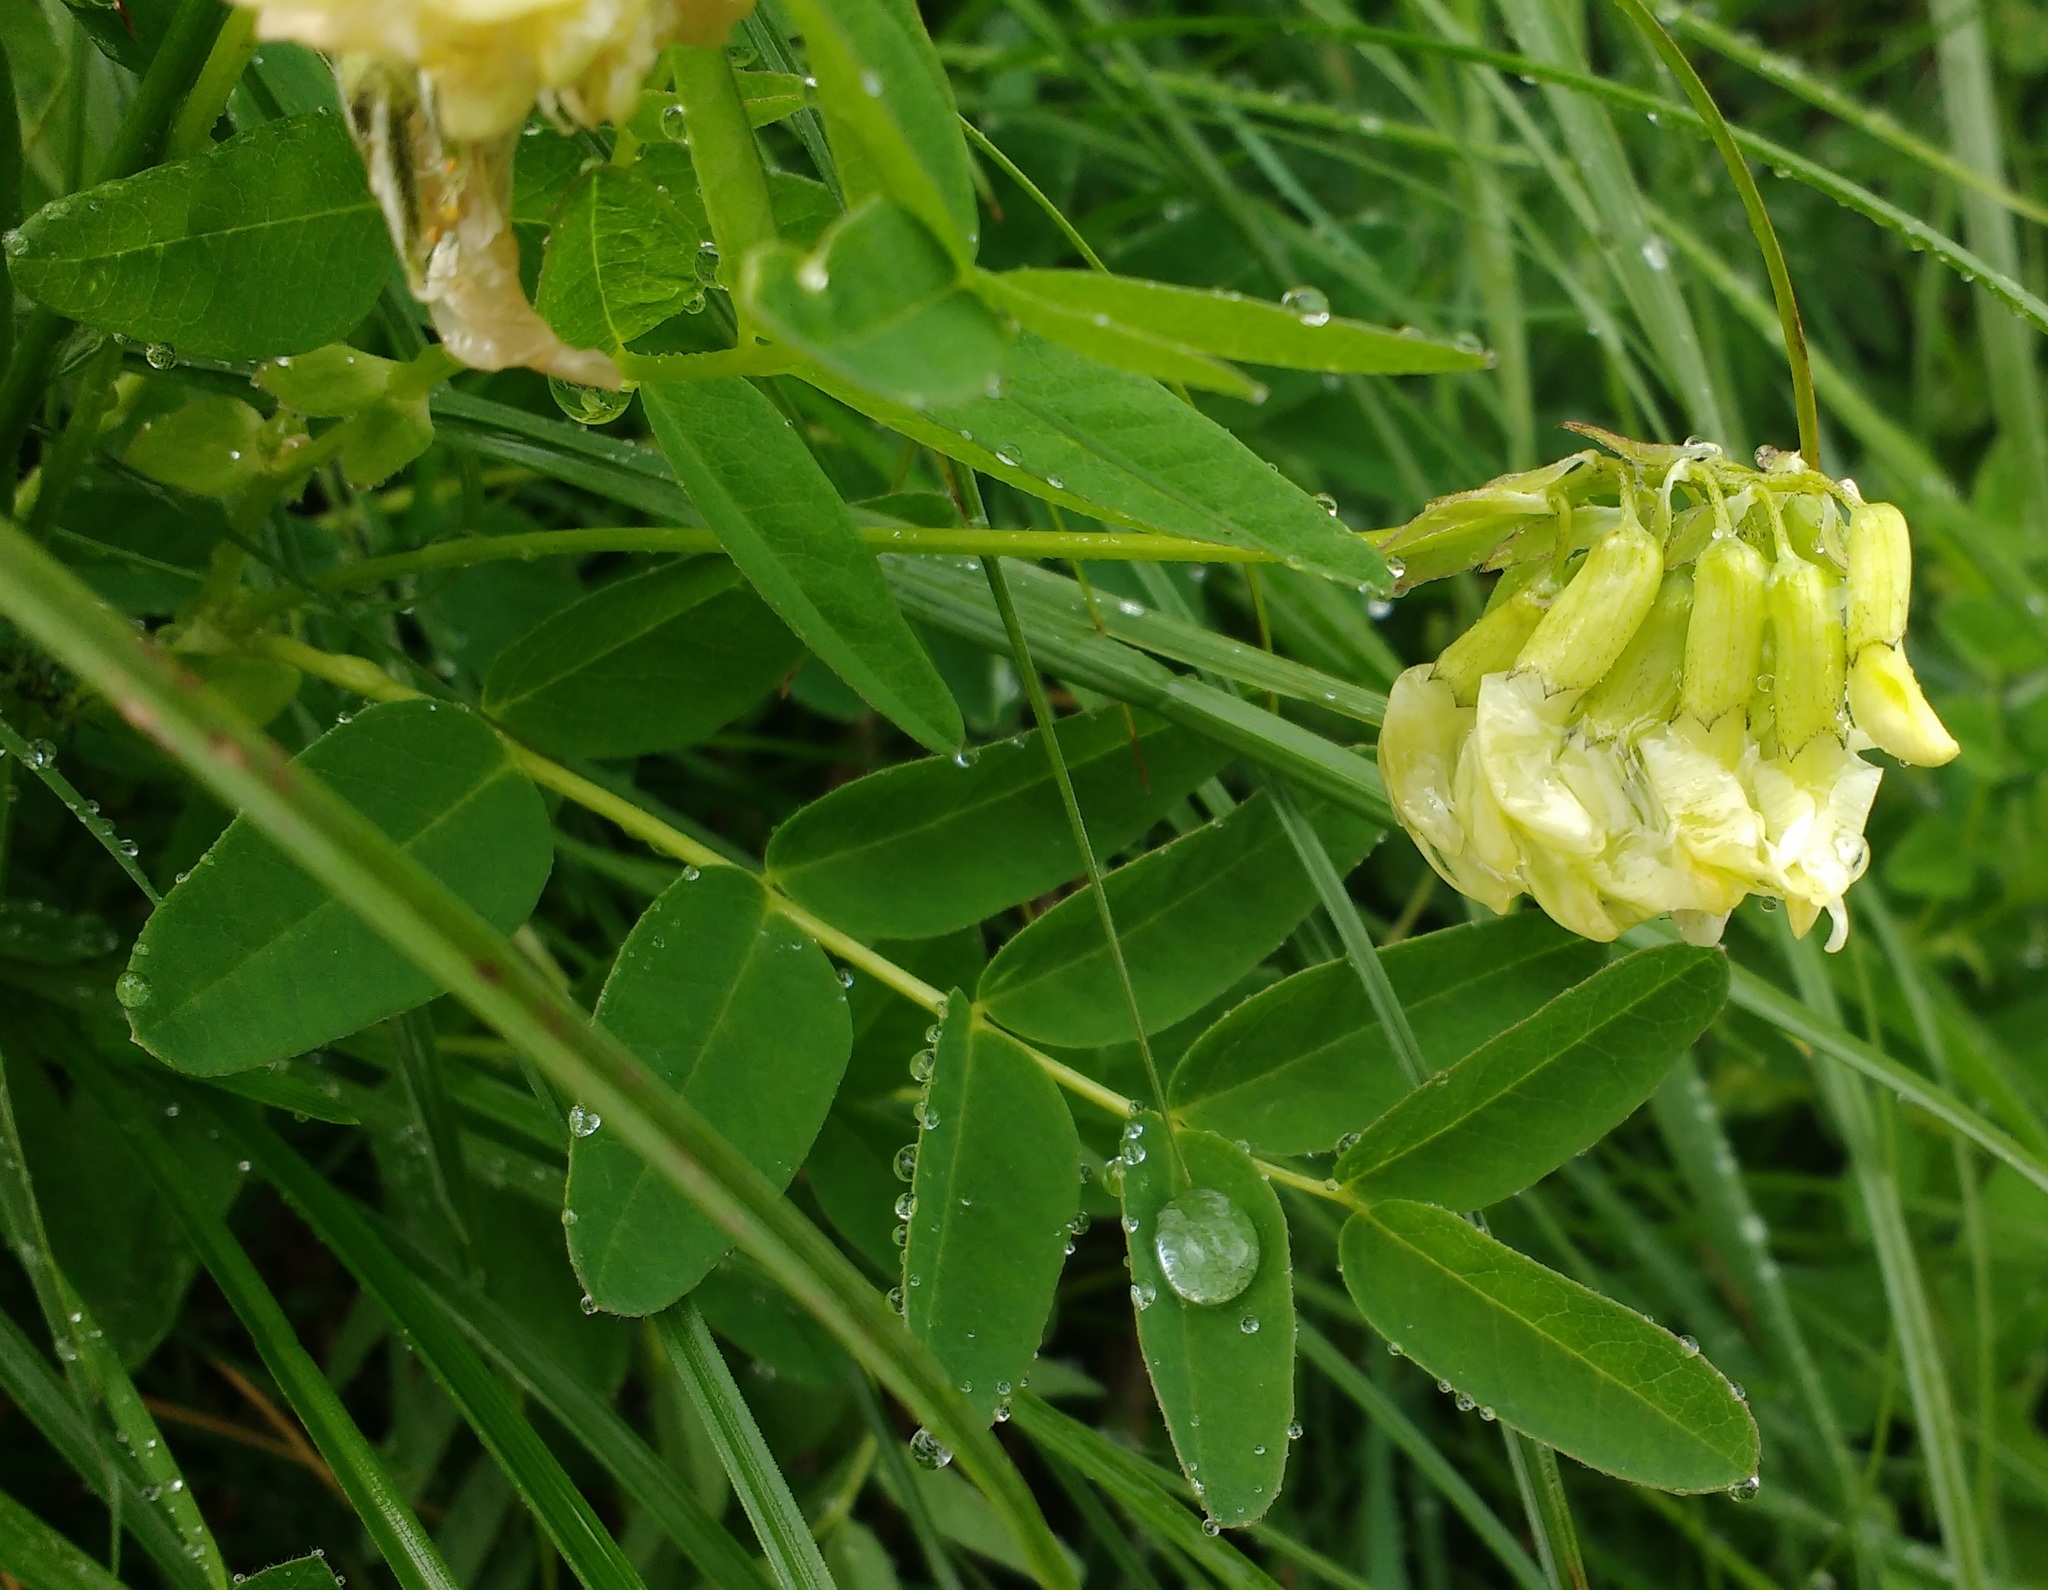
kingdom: Plantae
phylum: Tracheophyta
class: Magnoliopsida
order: Fabales
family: Fabaceae
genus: Astragalus
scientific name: Astragalus frigidus
